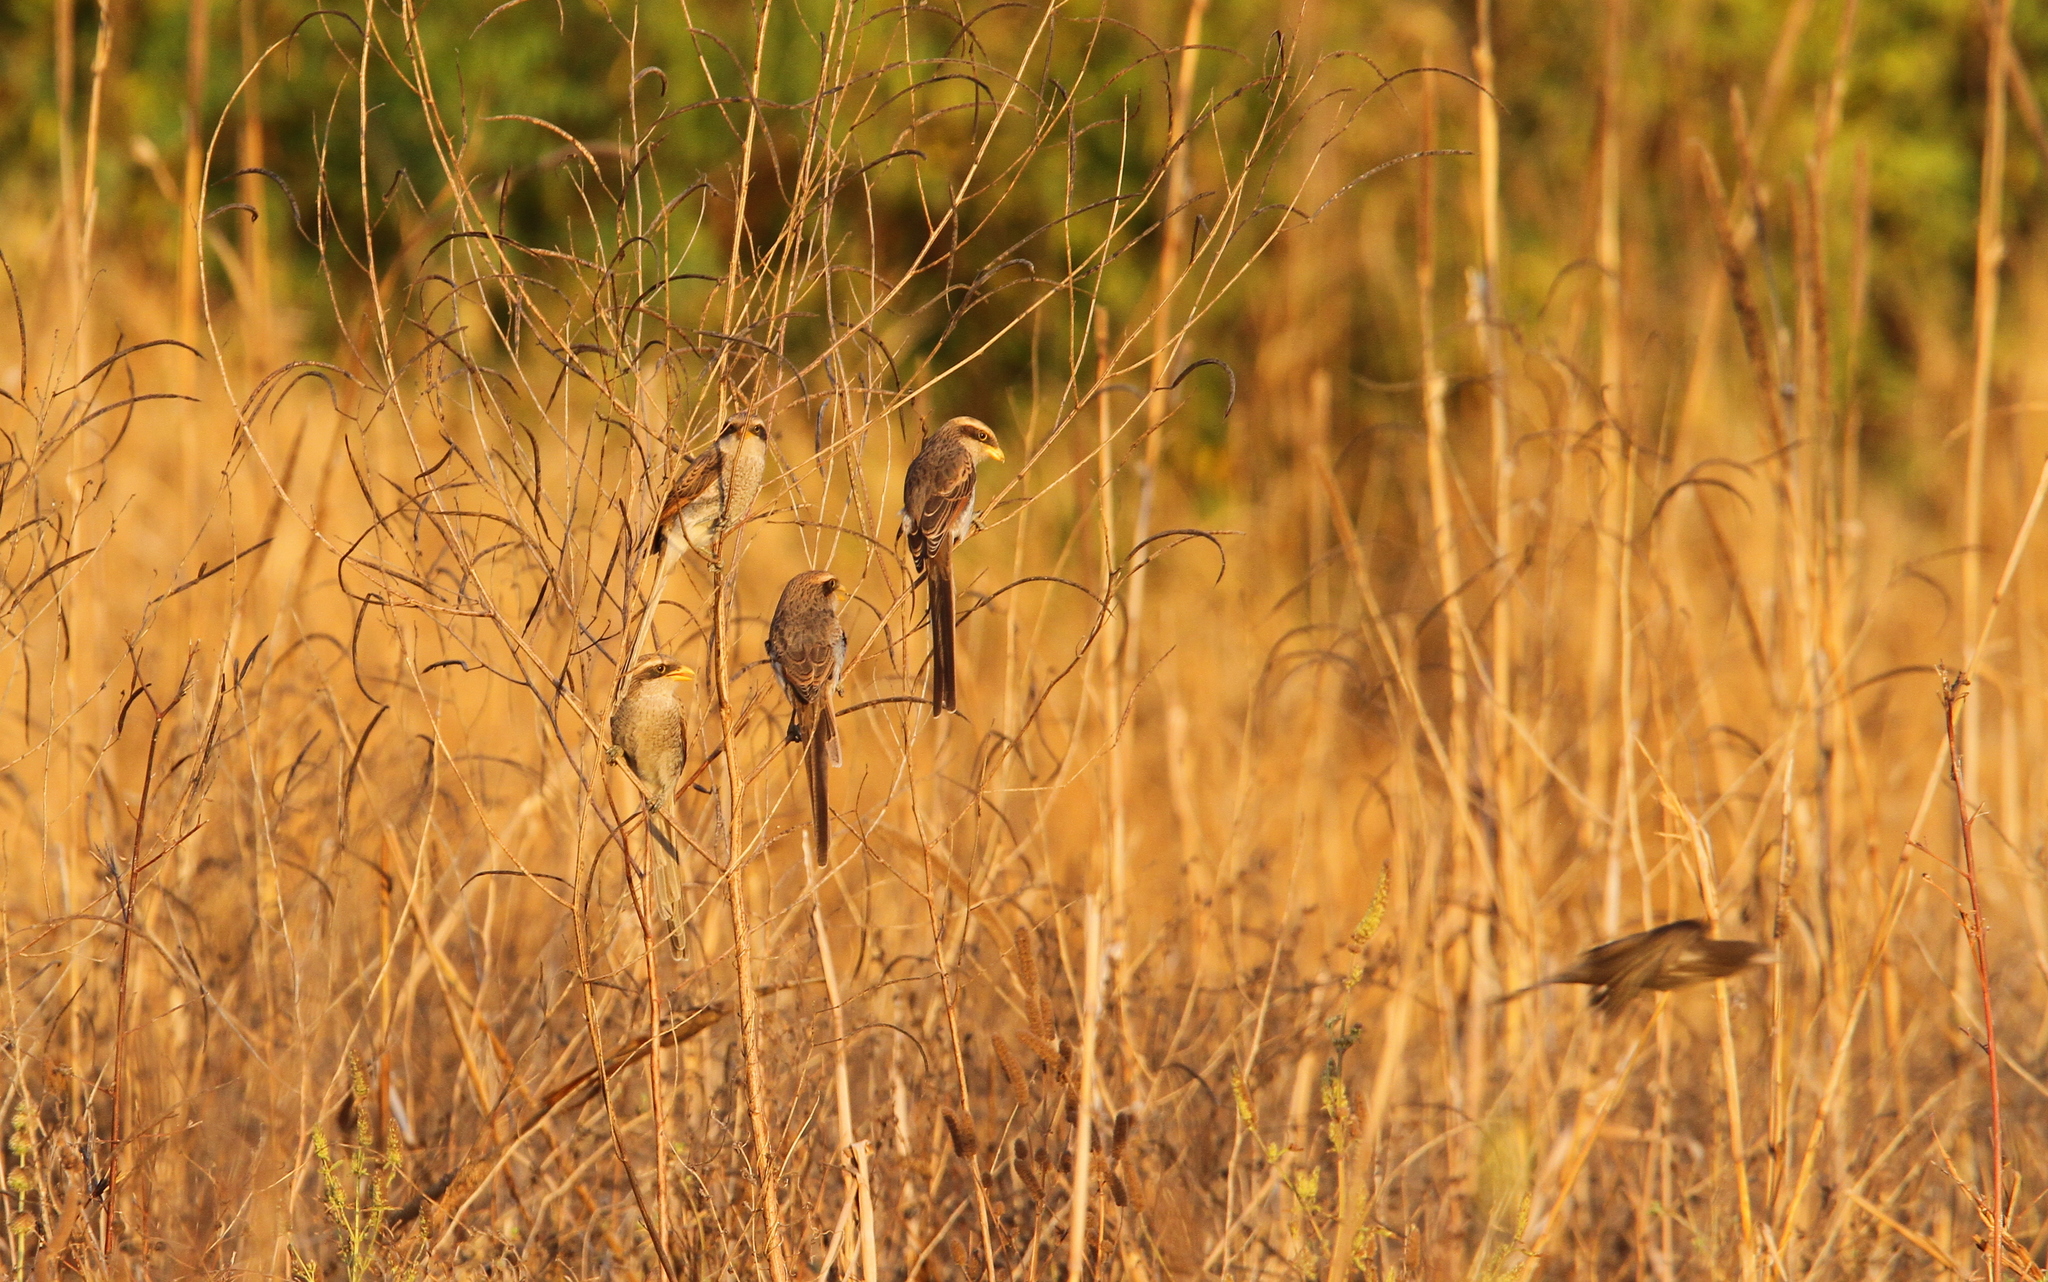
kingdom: Animalia
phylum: Chordata
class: Aves
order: Passeriformes
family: Laniidae
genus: Corvinella
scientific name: Corvinella corvina
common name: Yellow-billed shrike
